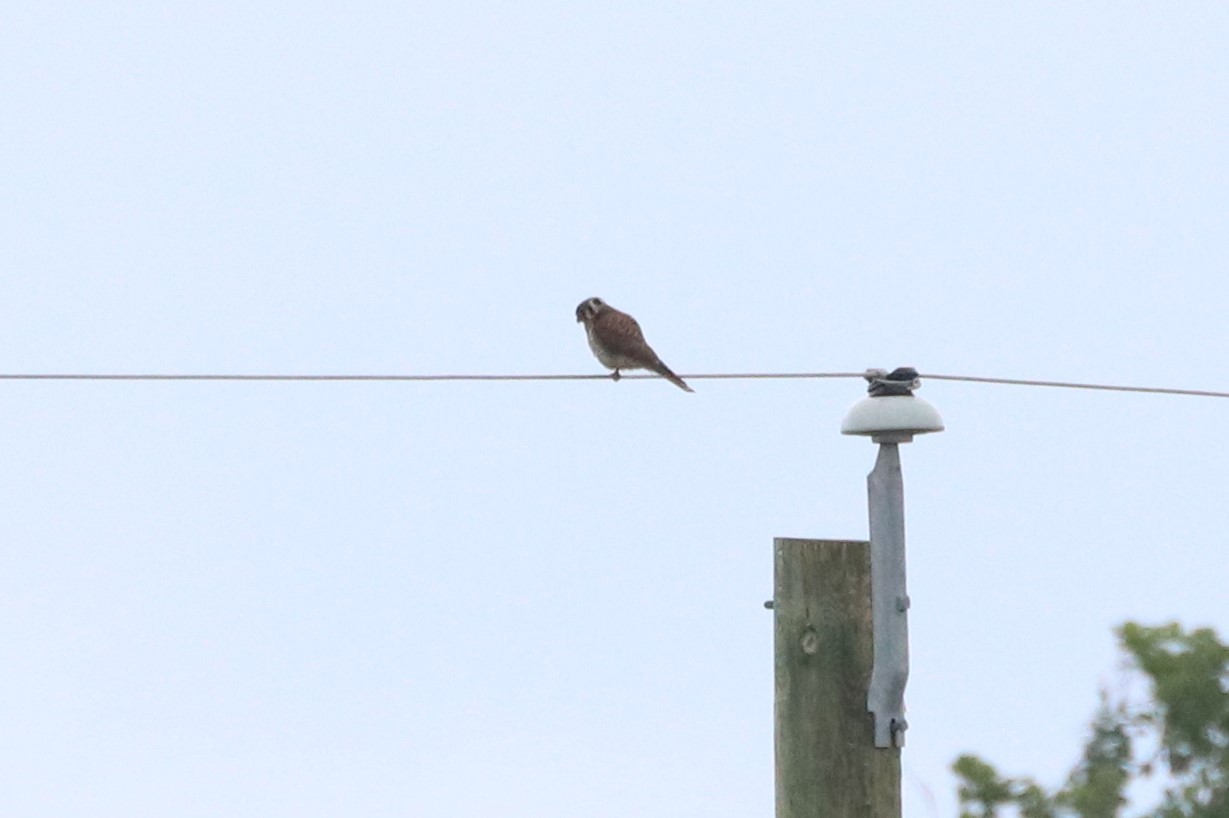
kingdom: Animalia
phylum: Chordata
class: Aves
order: Falconiformes
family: Falconidae
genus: Falco
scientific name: Falco sparverius
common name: American kestrel
